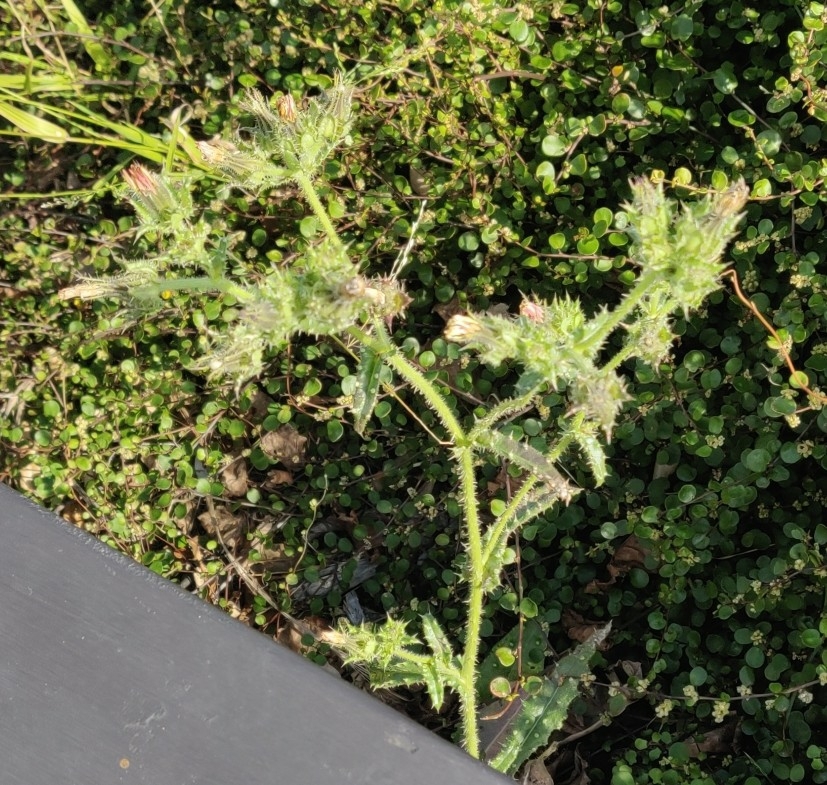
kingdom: Plantae
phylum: Tracheophyta
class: Magnoliopsida
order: Asterales
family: Asteraceae
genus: Helminthotheca
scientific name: Helminthotheca echioides
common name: Ox-tongue
